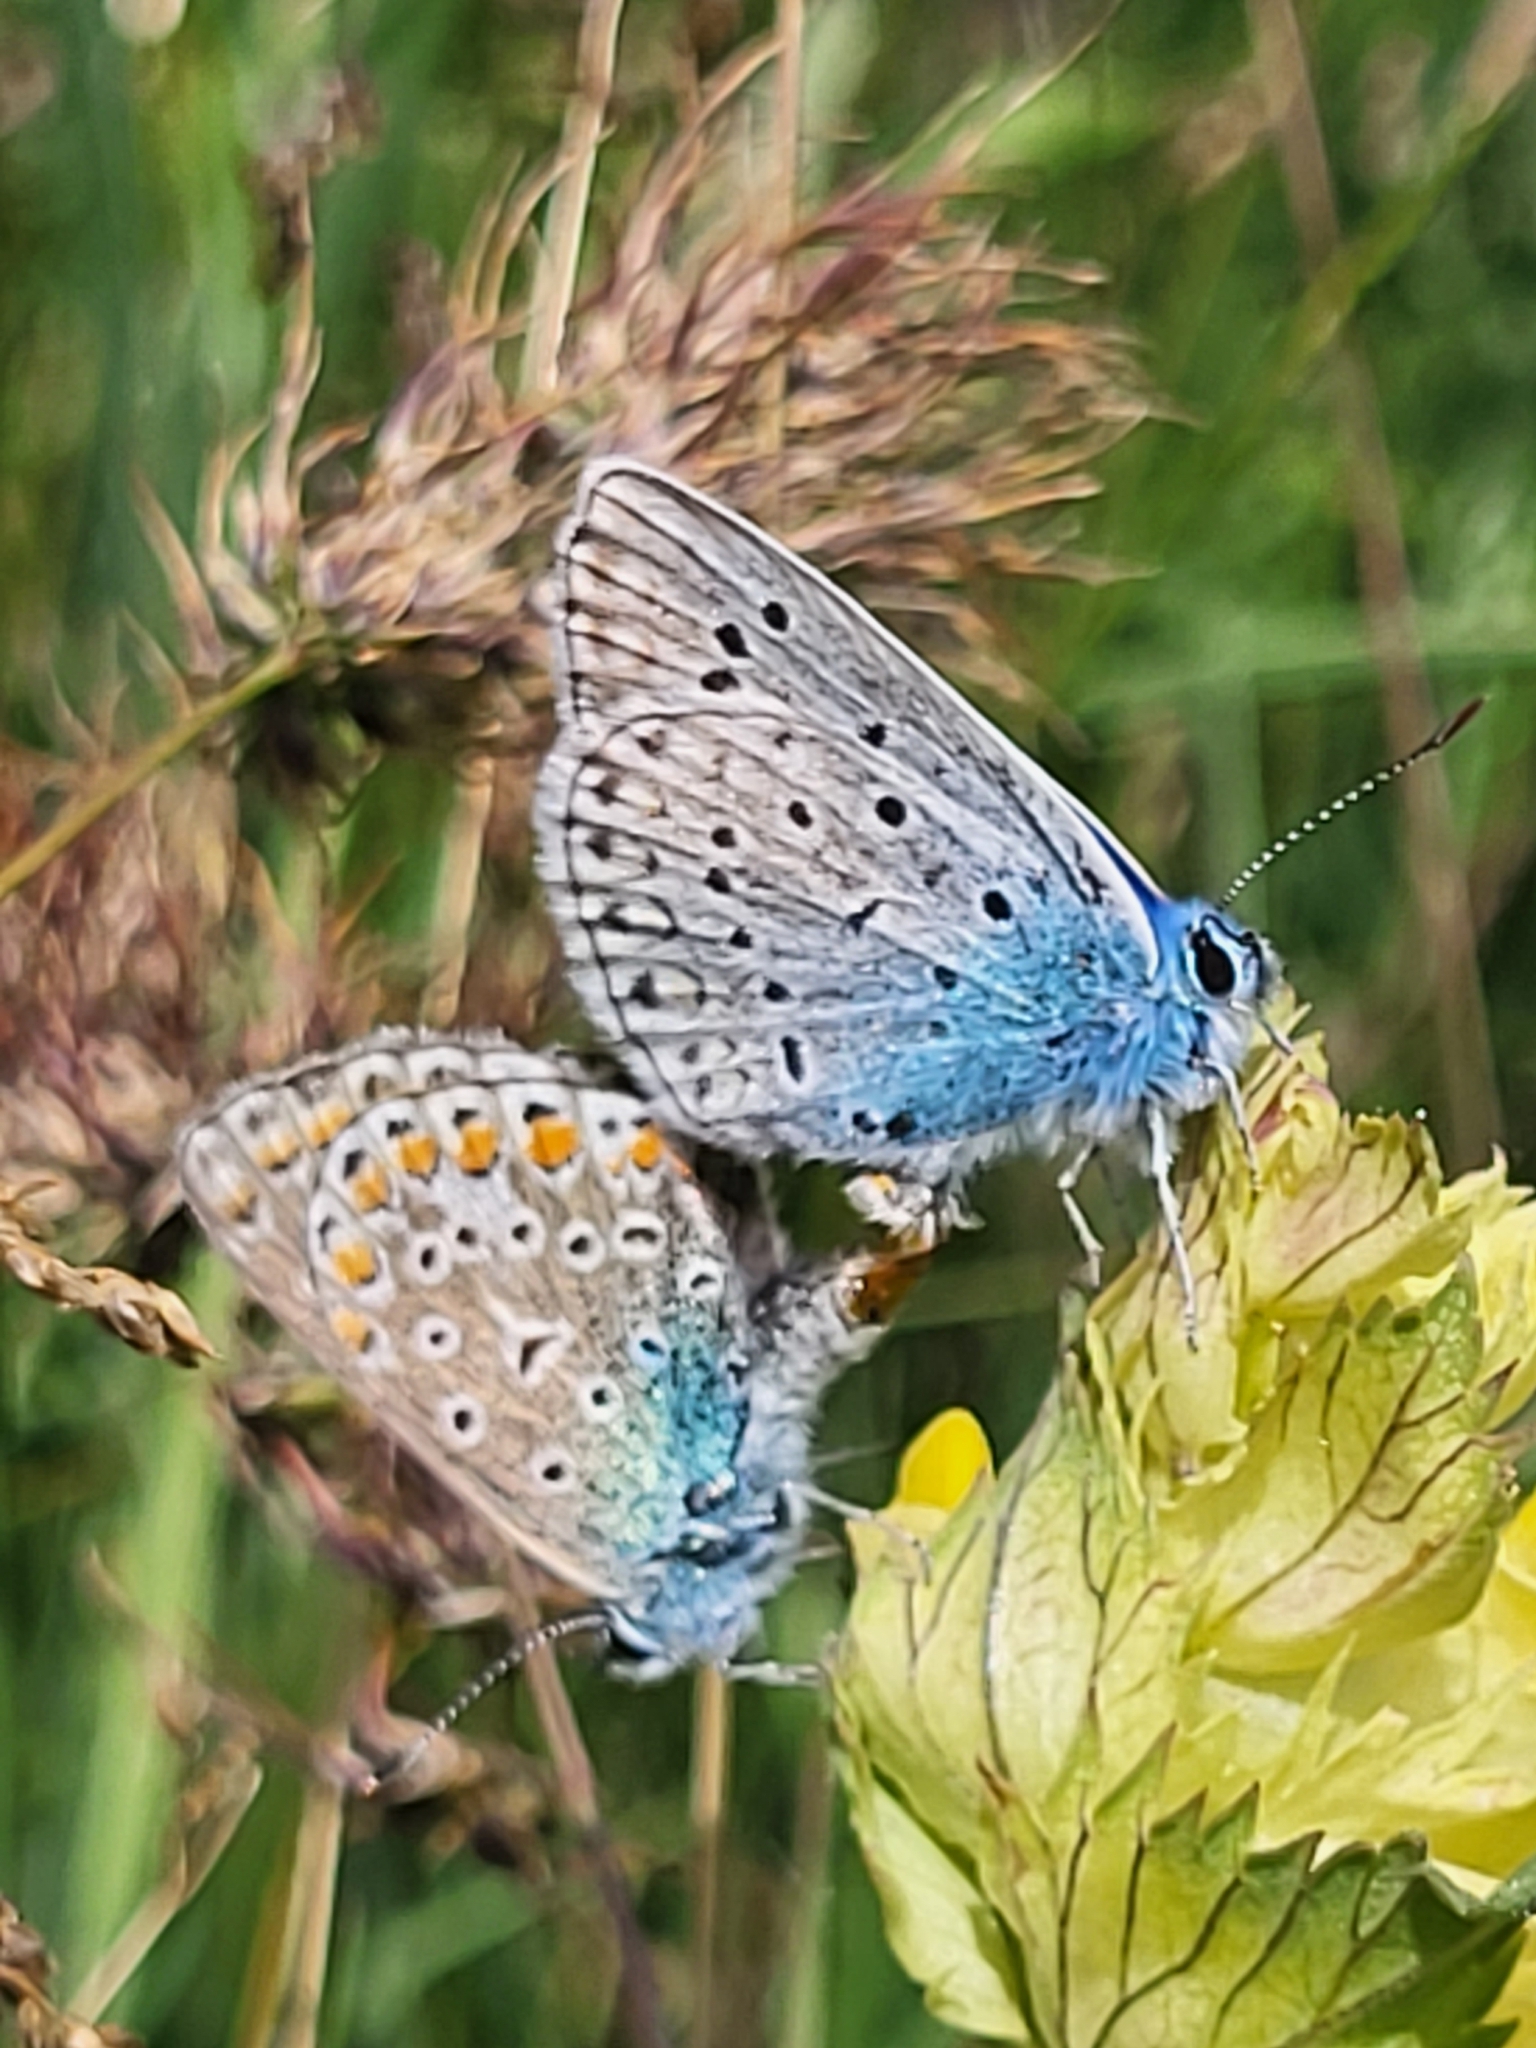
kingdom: Animalia
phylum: Arthropoda
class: Insecta
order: Lepidoptera
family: Lycaenidae
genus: Polyommatus
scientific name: Polyommatus icarus
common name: Common blue
